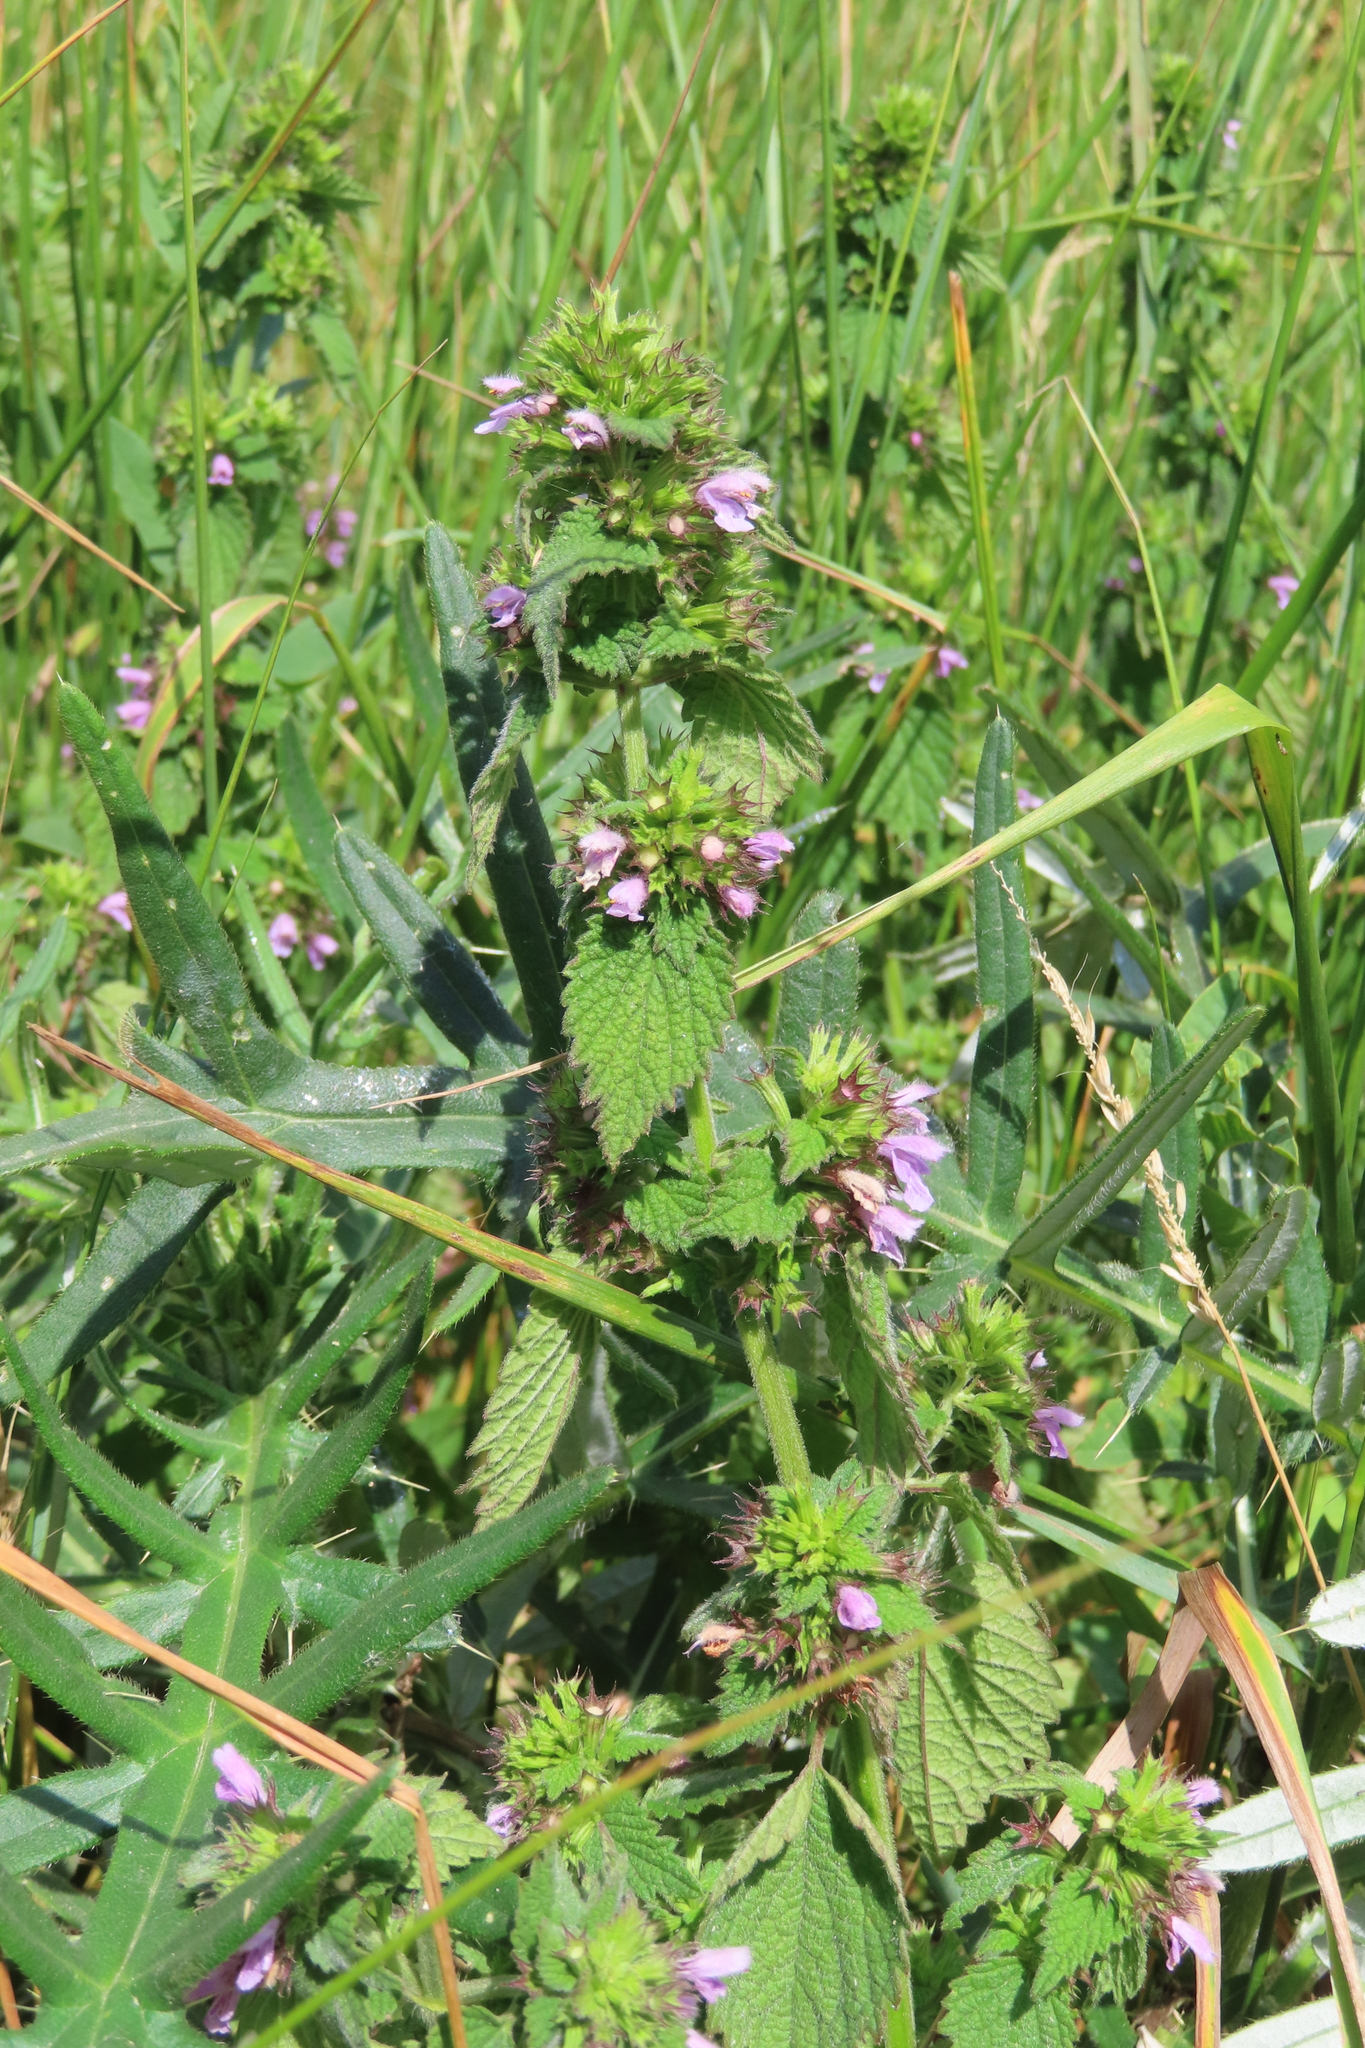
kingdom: Plantae
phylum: Tracheophyta
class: Magnoliopsida
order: Lamiales
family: Lamiaceae
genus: Ballota
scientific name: Ballota nigra
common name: Black horehound
